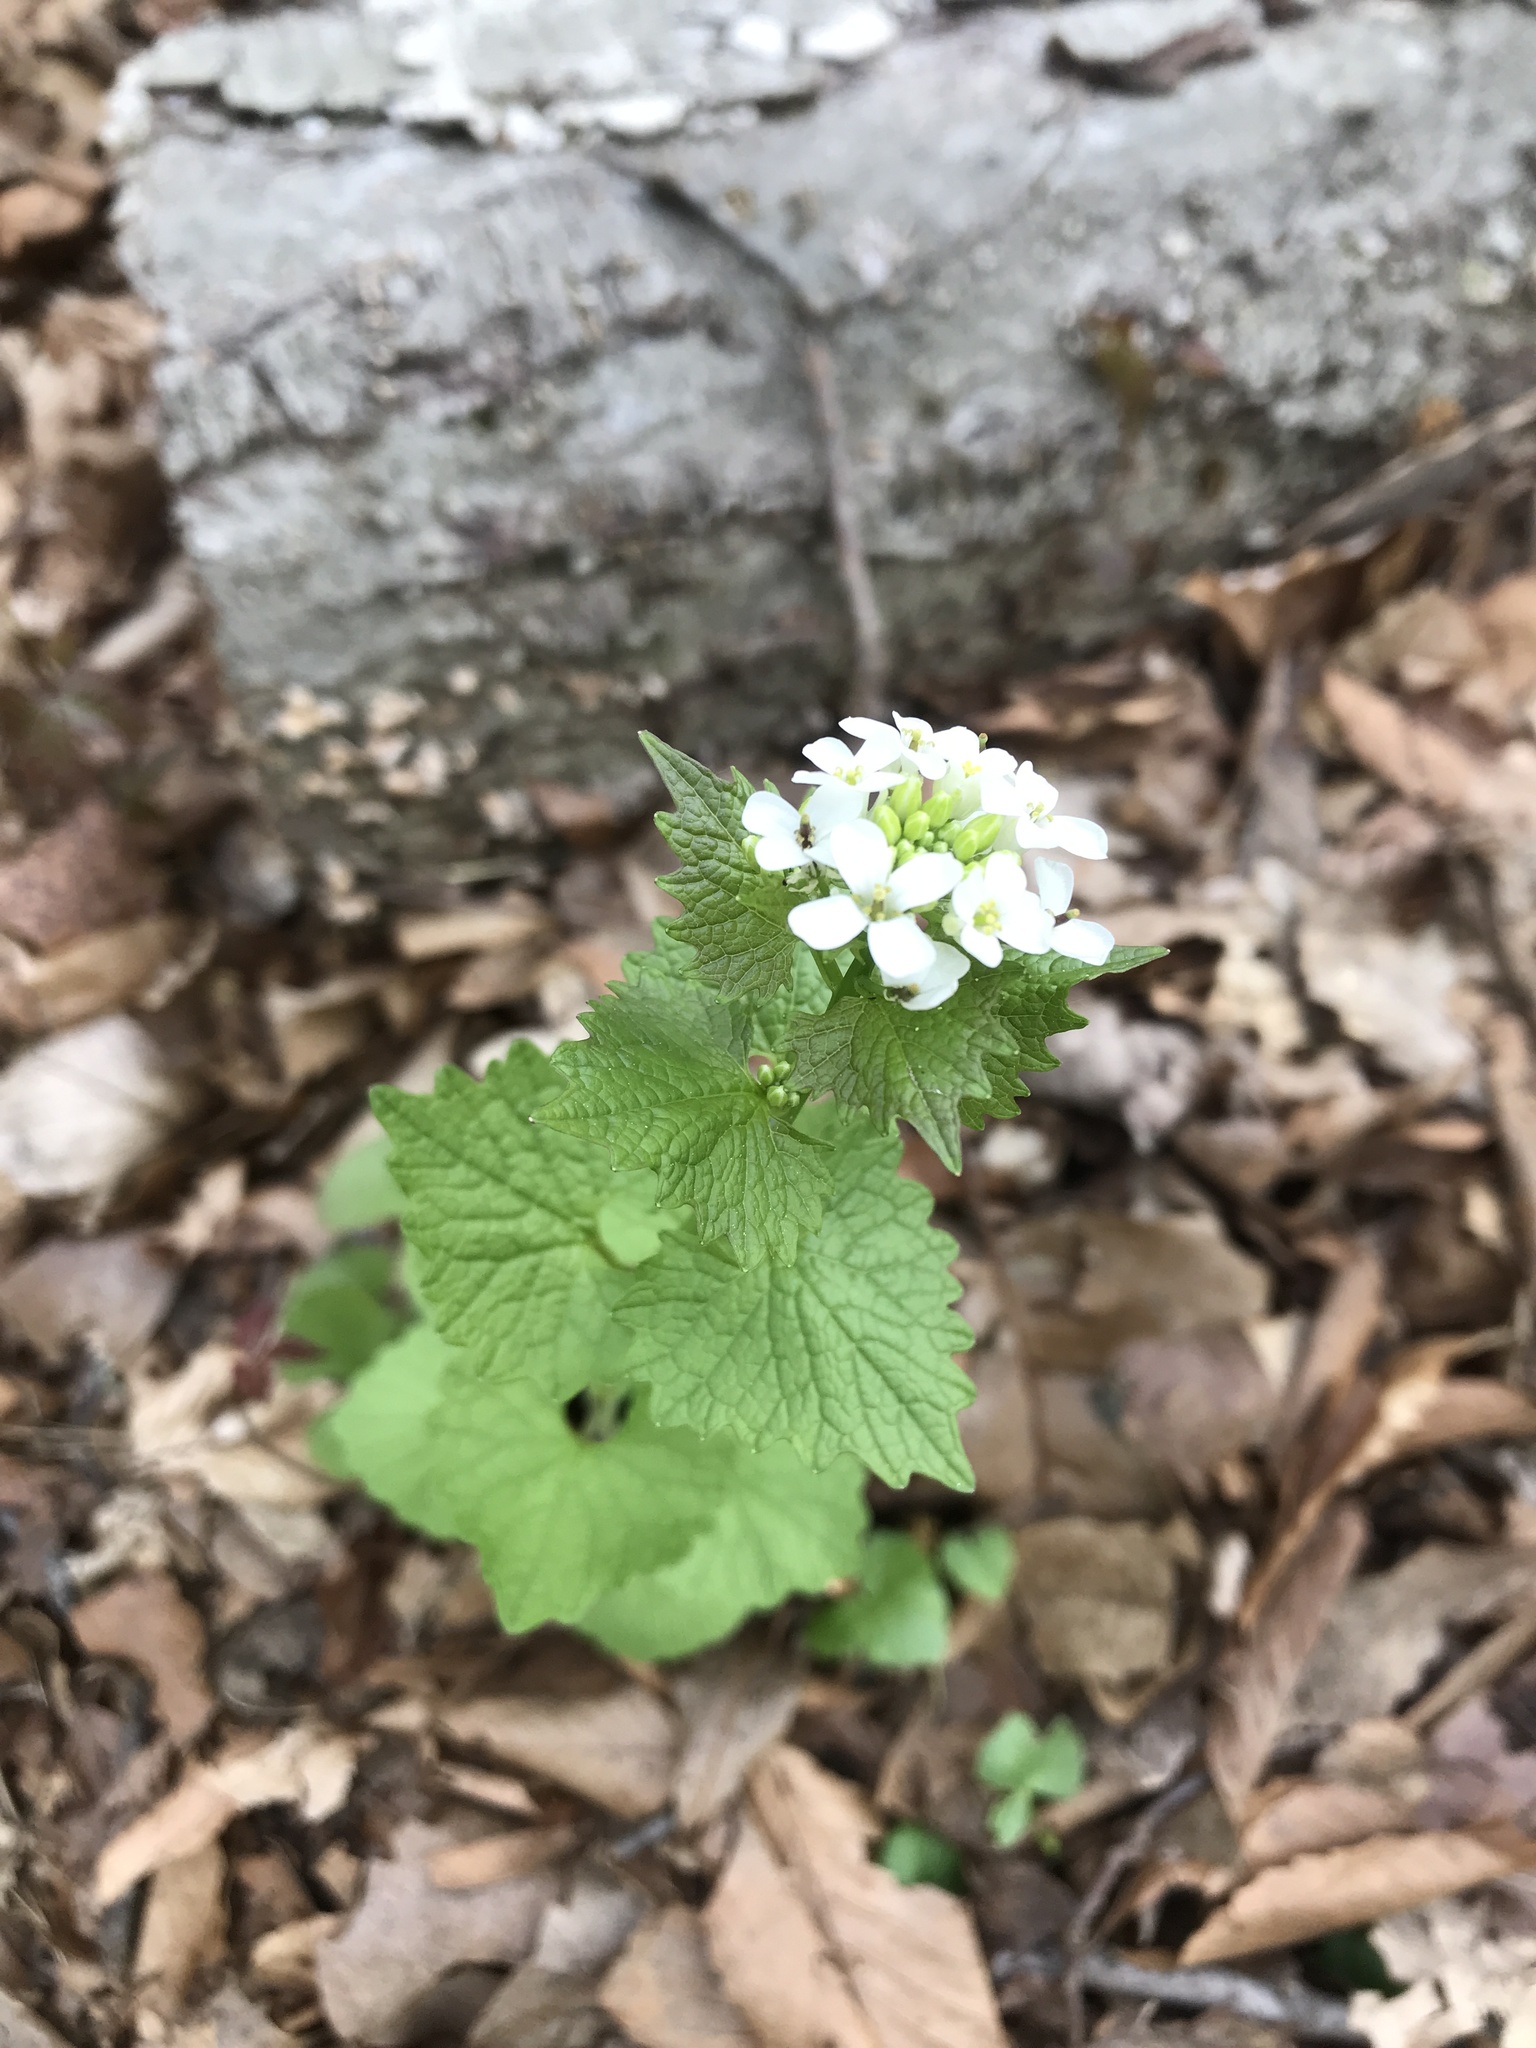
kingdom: Plantae
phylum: Tracheophyta
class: Magnoliopsida
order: Brassicales
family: Brassicaceae
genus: Alliaria
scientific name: Alliaria petiolata
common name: Garlic mustard
